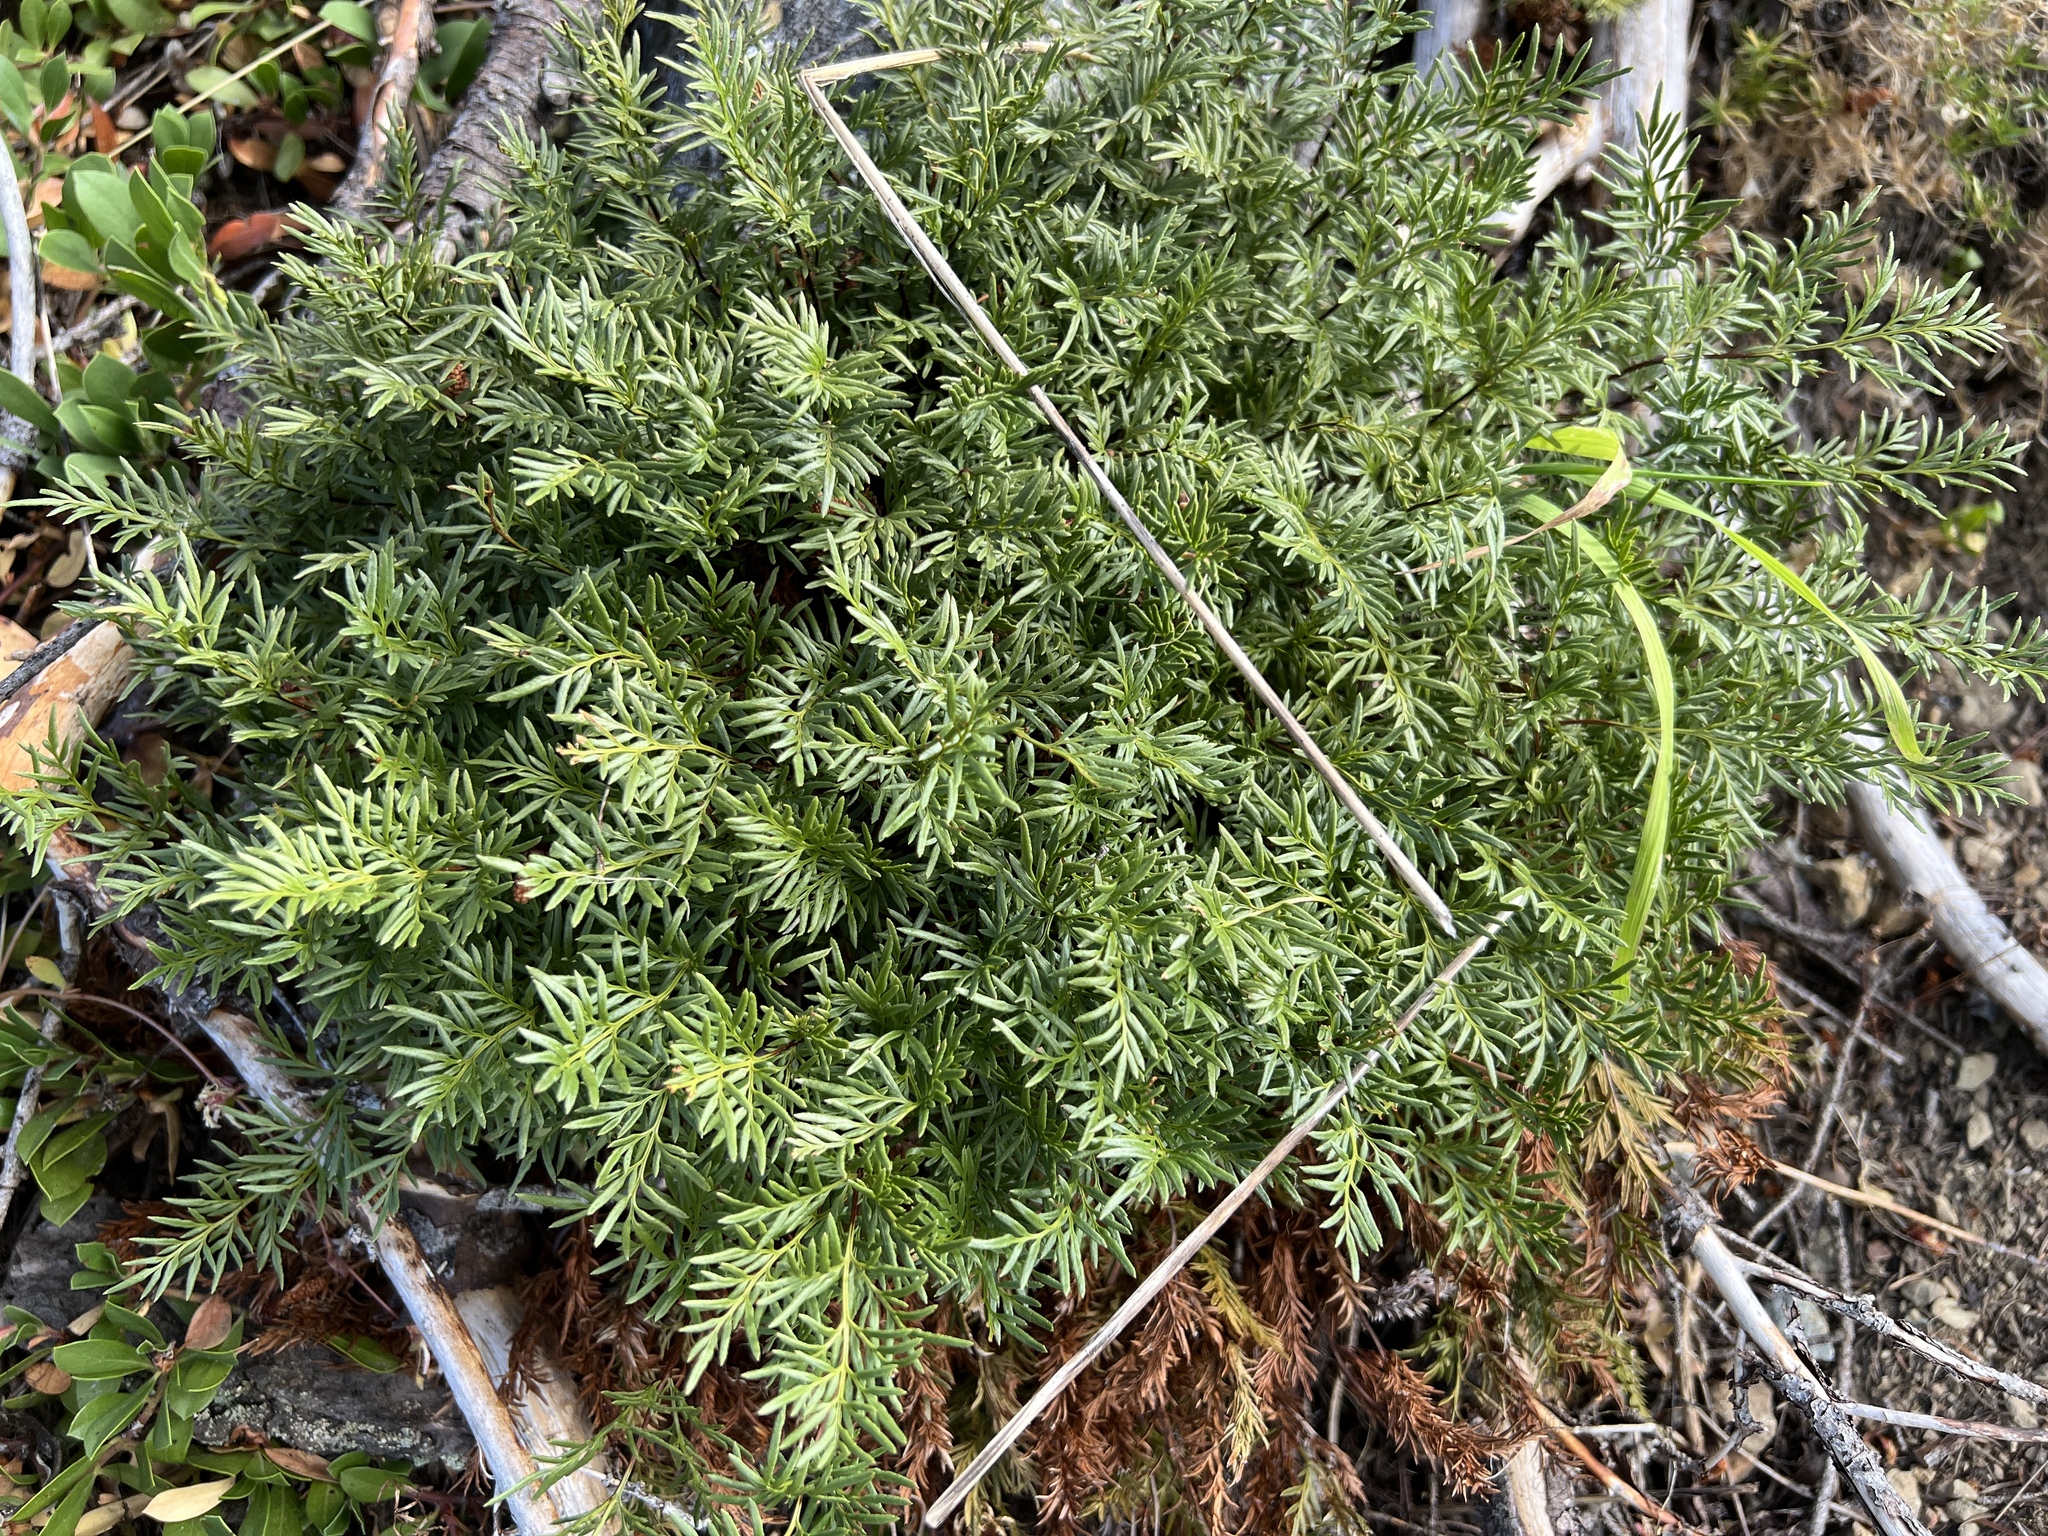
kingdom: Plantae
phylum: Tracheophyta
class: Polypodiopsida
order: Polypodiales
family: Pteridaceae
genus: Aspidotis
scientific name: Aspidotis densa
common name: Indian's dream
